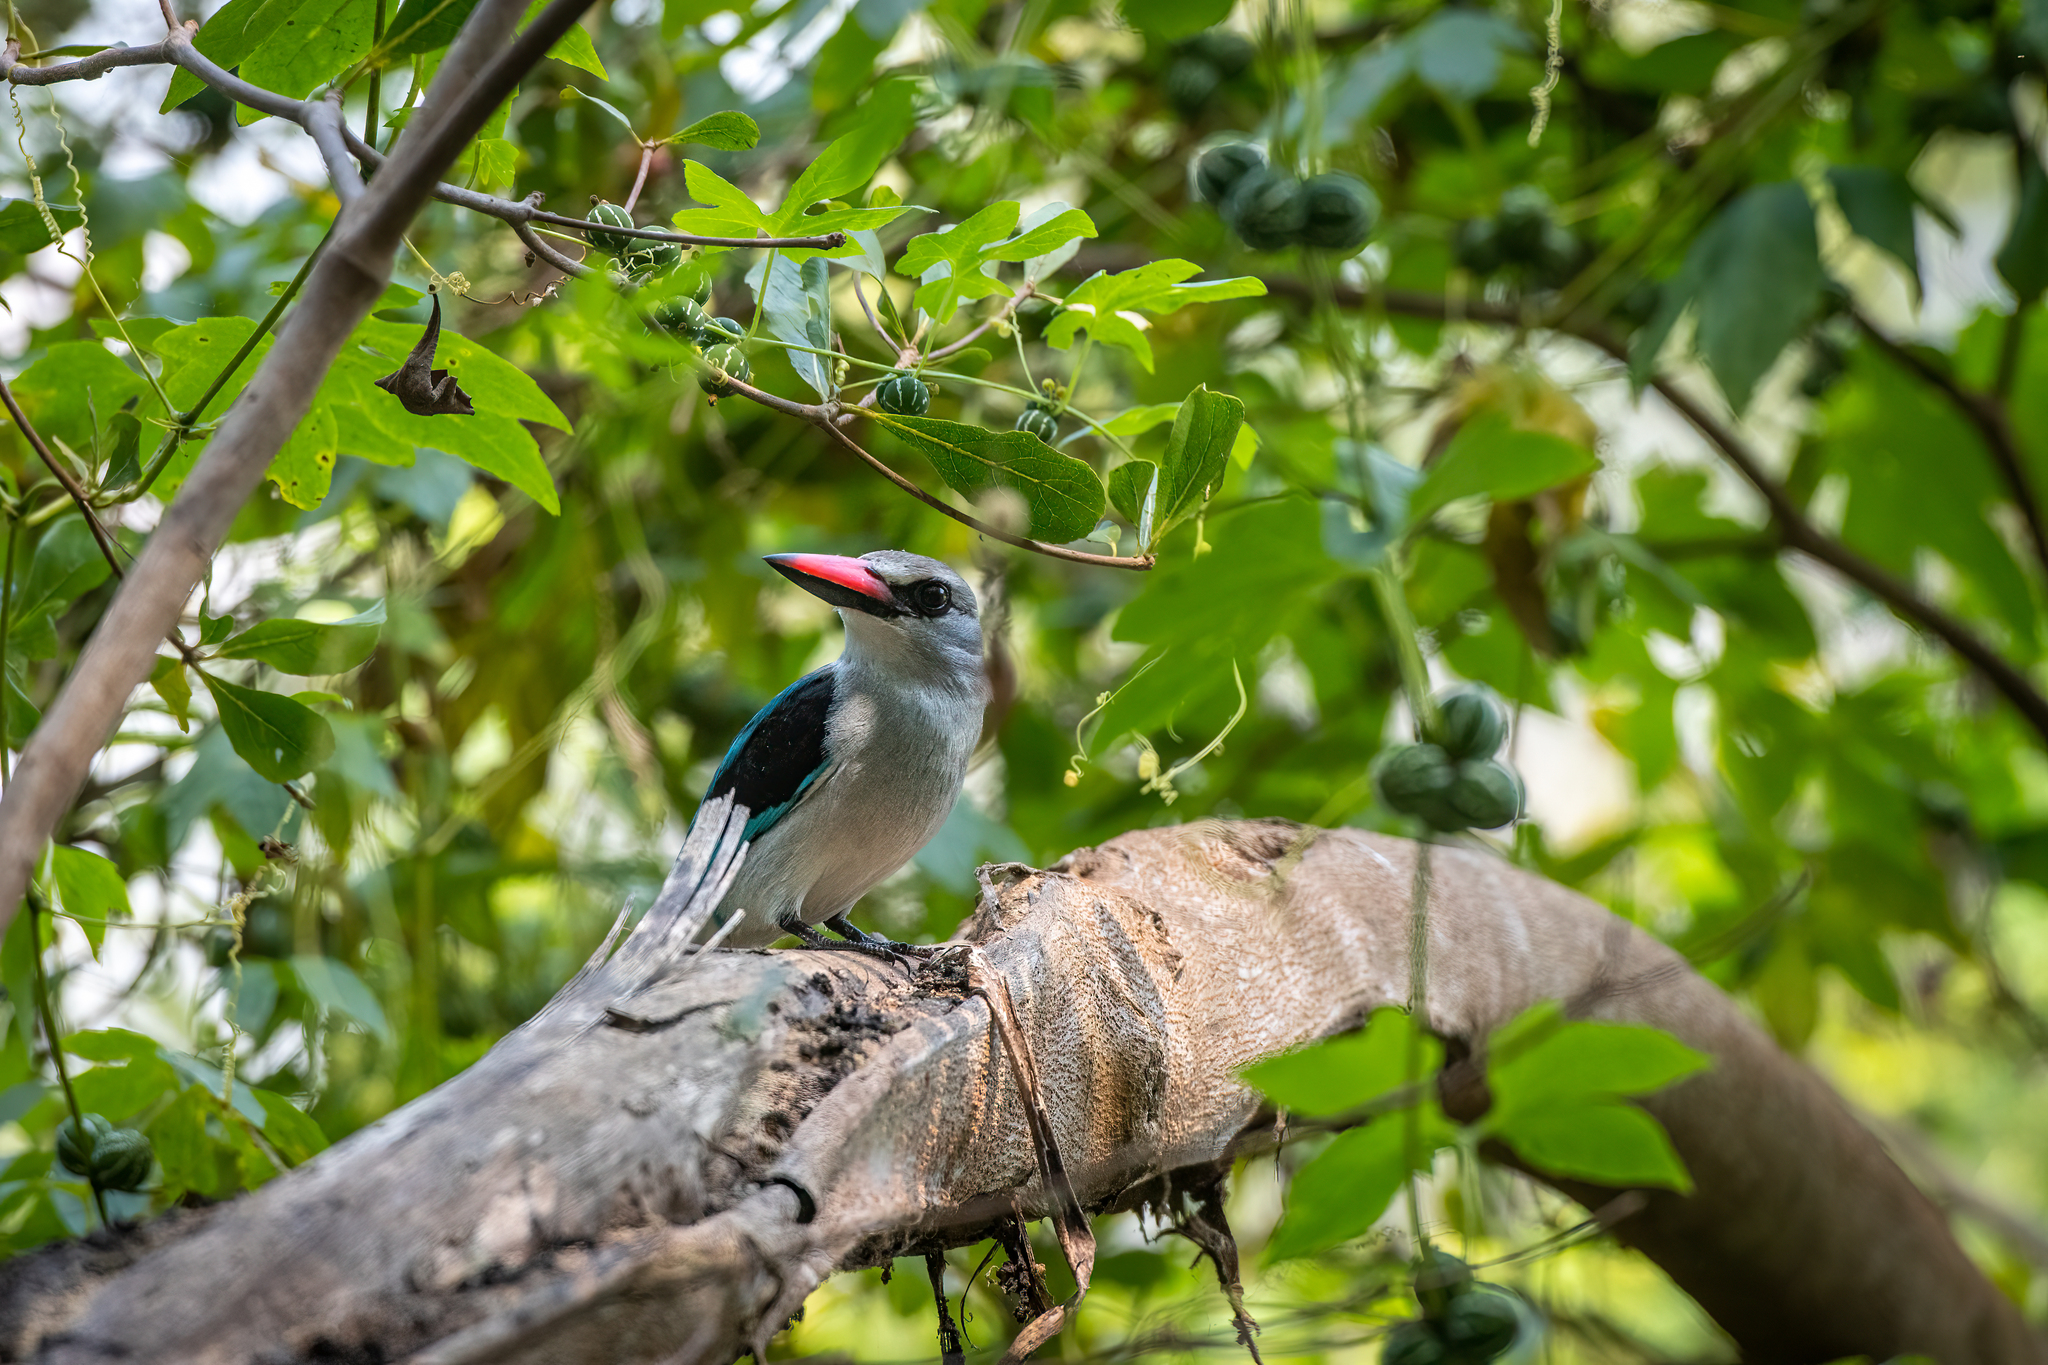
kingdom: Animalia
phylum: Chordata
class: Aves
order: Coraciiformes
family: Alcedinidae
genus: Halcyon
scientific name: Halcyon senegalensis
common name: Woodland kingfisher
